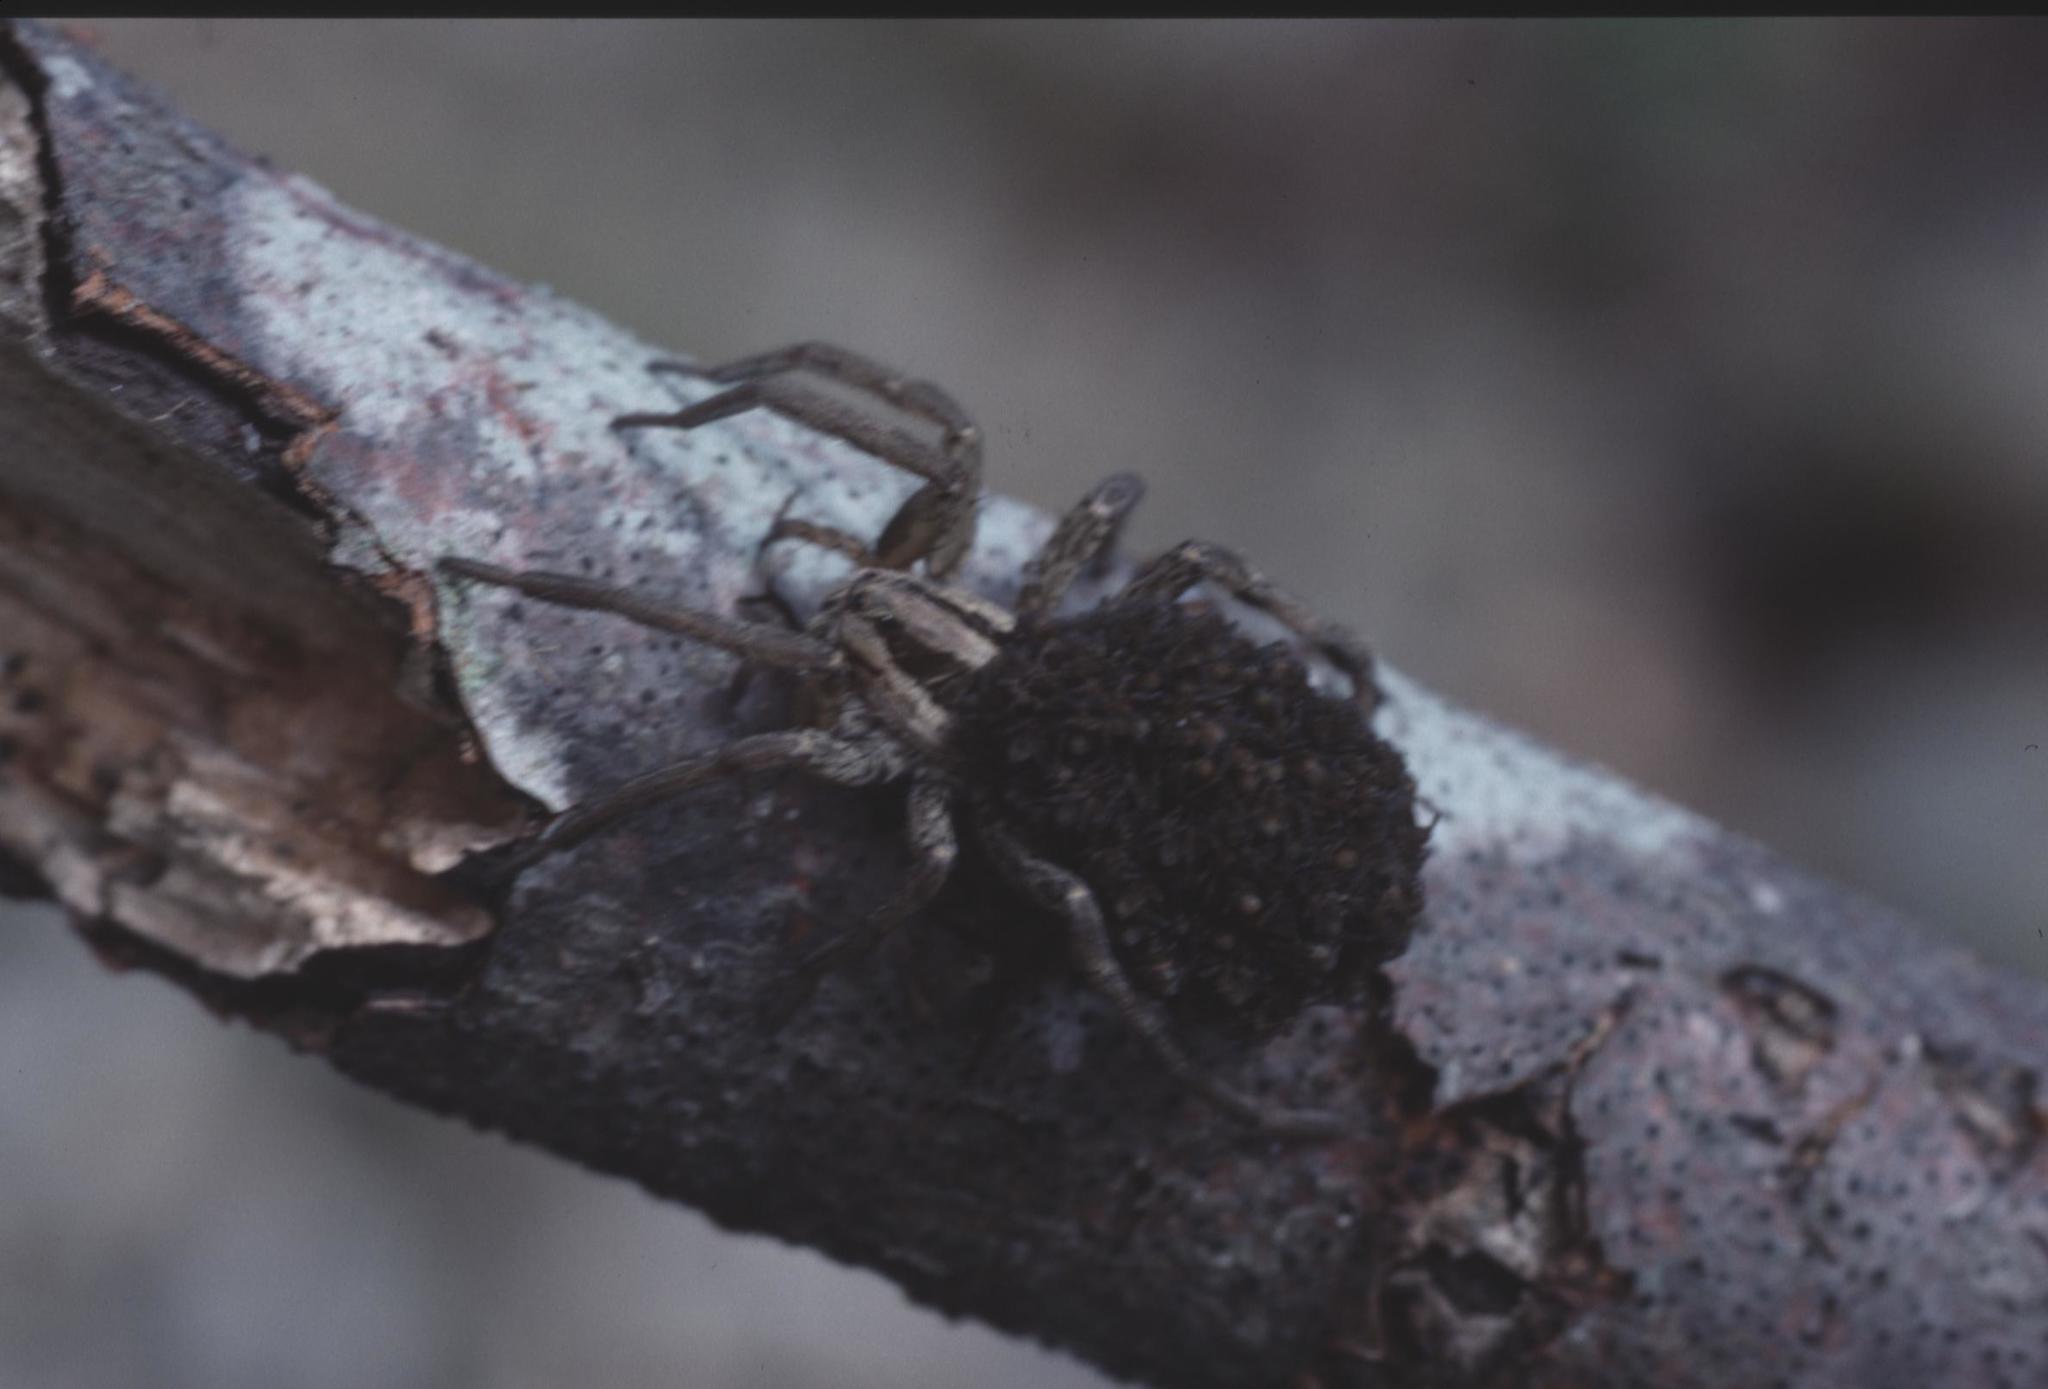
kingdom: Animalia
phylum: Arthropoda
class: Arachnida
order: Araneae
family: Lycosidae
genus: Hogna
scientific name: Hogna radiata
